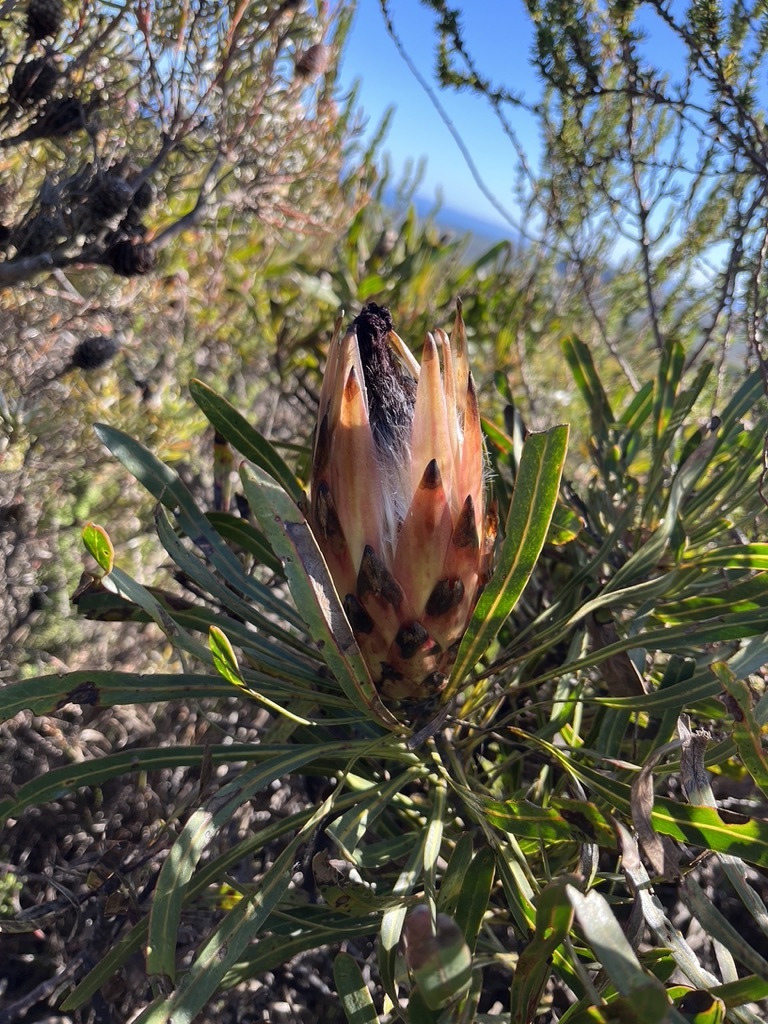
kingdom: Plantae
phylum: Tracheophyta
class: Magnoliopsida
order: Proteales
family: Proteaceae
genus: Protea
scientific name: Protea longifolia
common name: Long-leaf sugarbush
